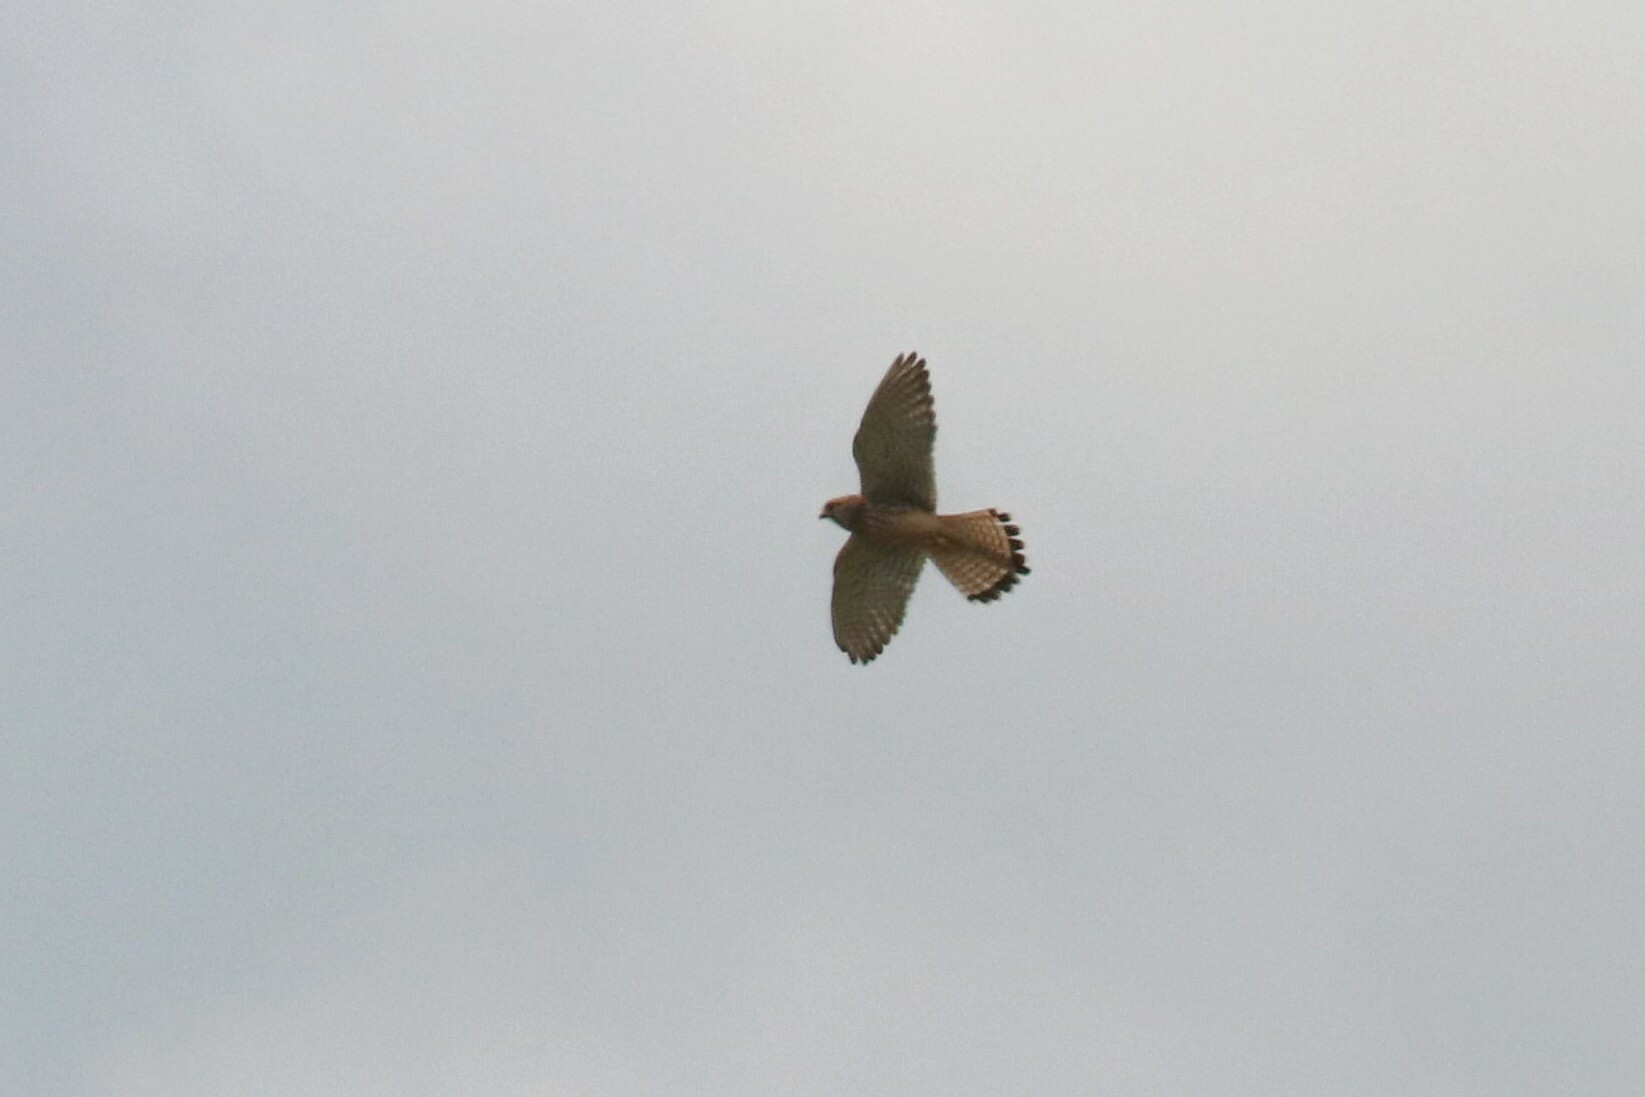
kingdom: Animalia
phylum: Chordata
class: Aves
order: Falconiformes
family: Falconidae
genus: Falco
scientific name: Falco tinnunculus
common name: Common kestrel
